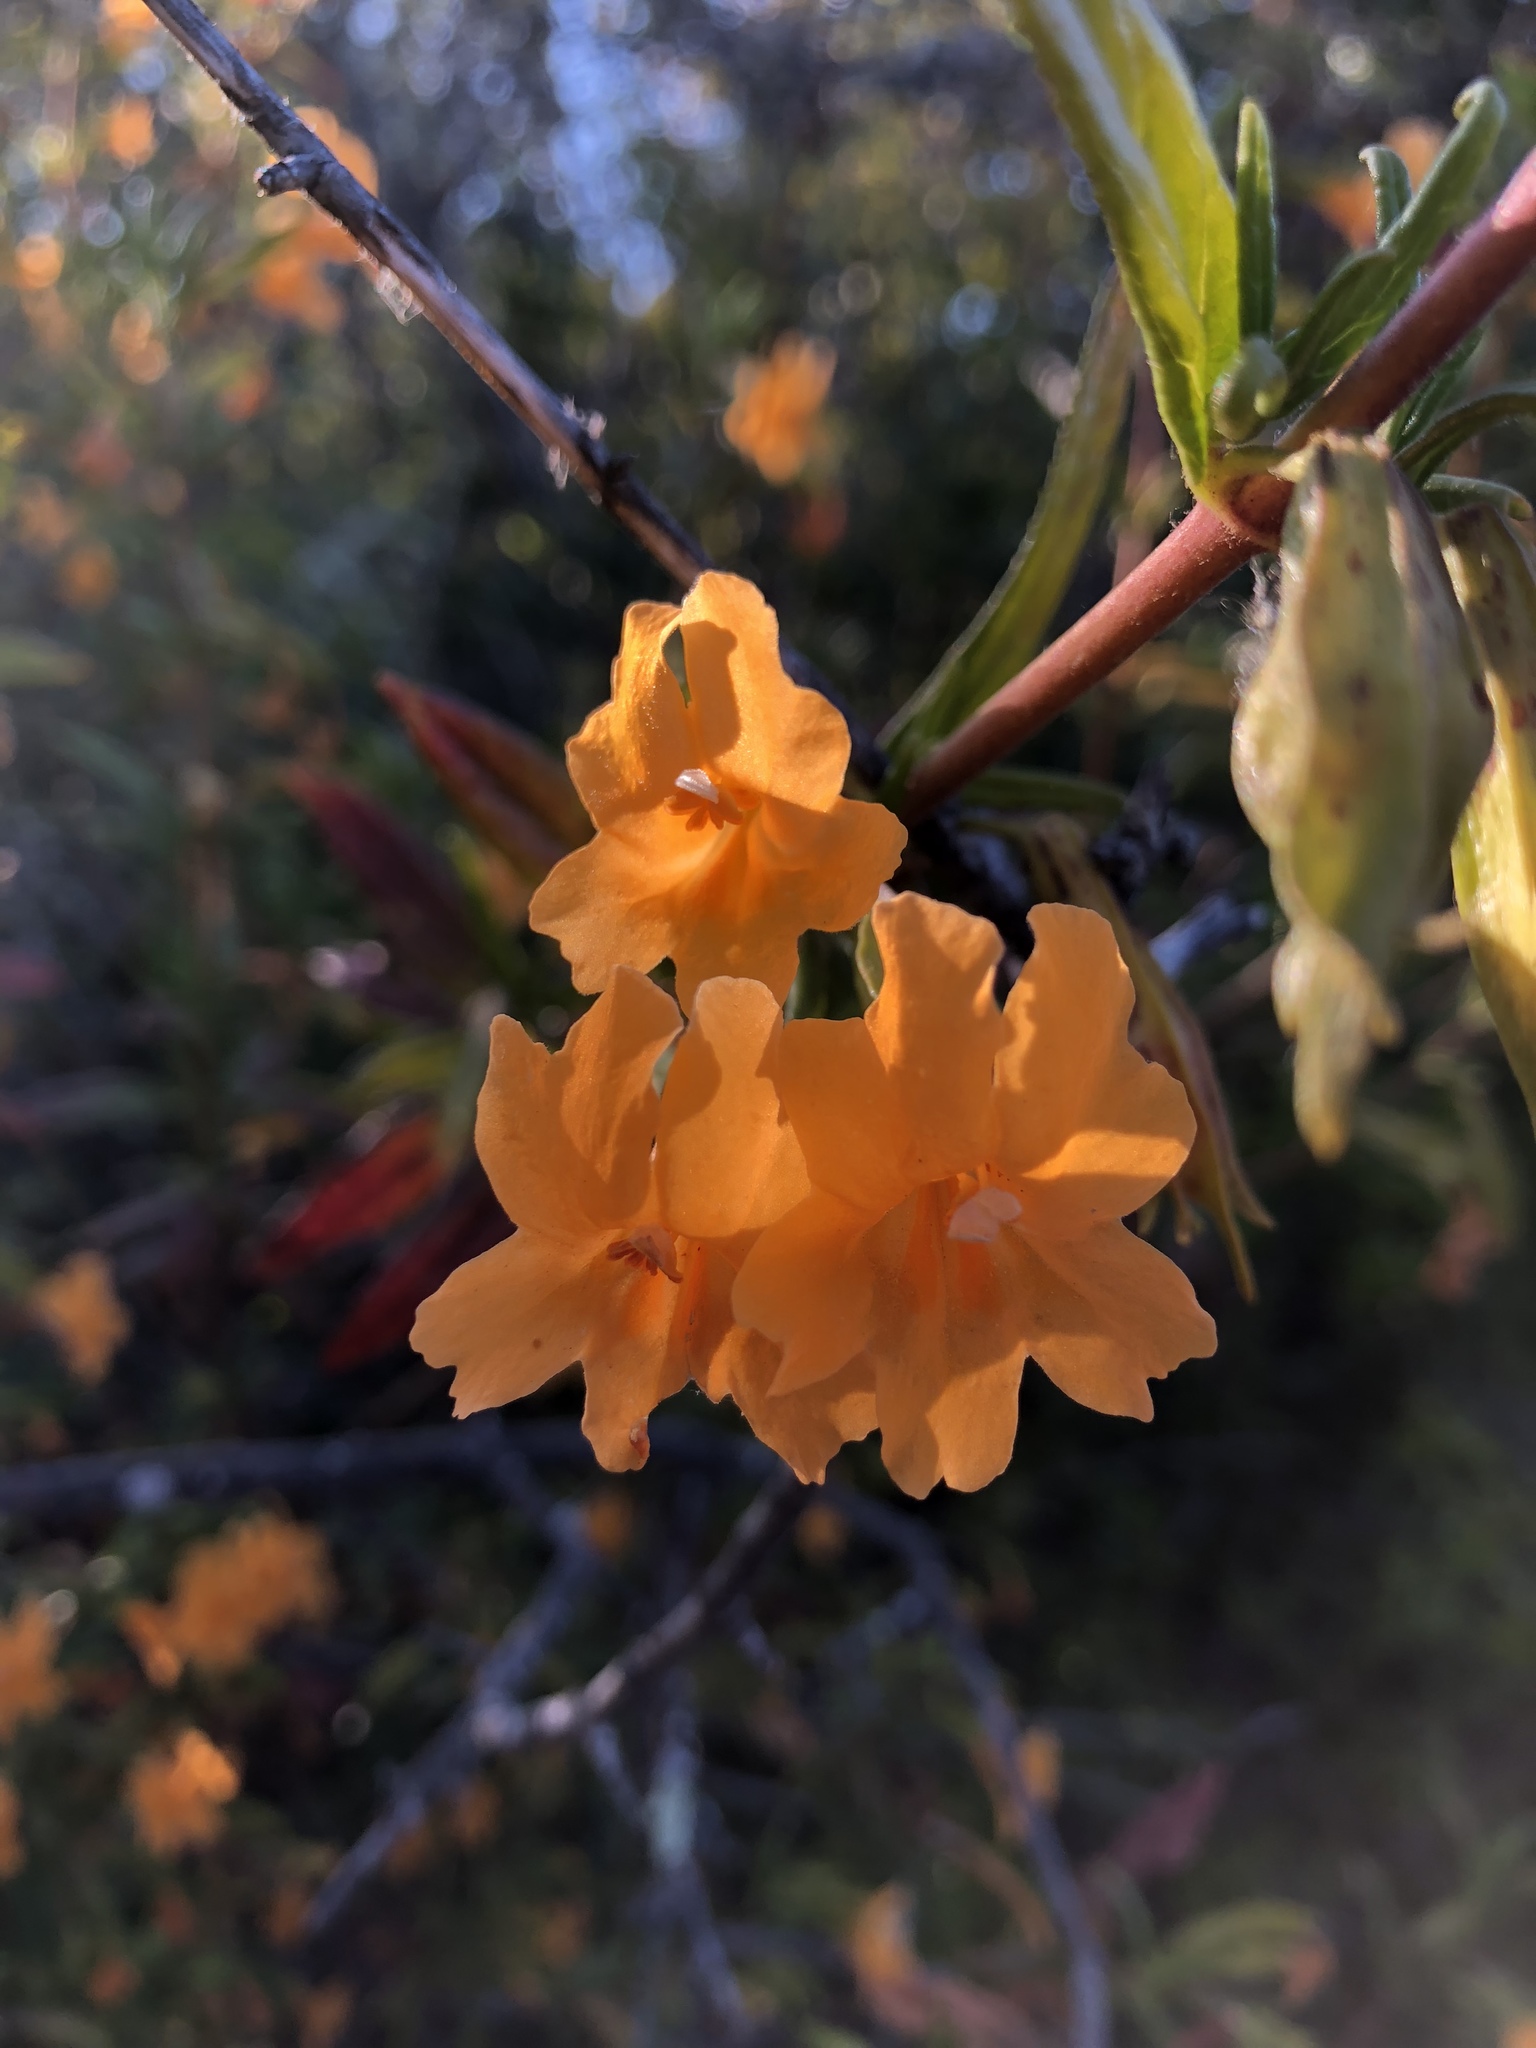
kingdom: Plantae
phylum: Tracheophyta
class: Magnoliopsida
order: Lamiales
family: Phrymaceae
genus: Diplacus
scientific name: Diplacus aurantiacus
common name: Bush monkey-flower
